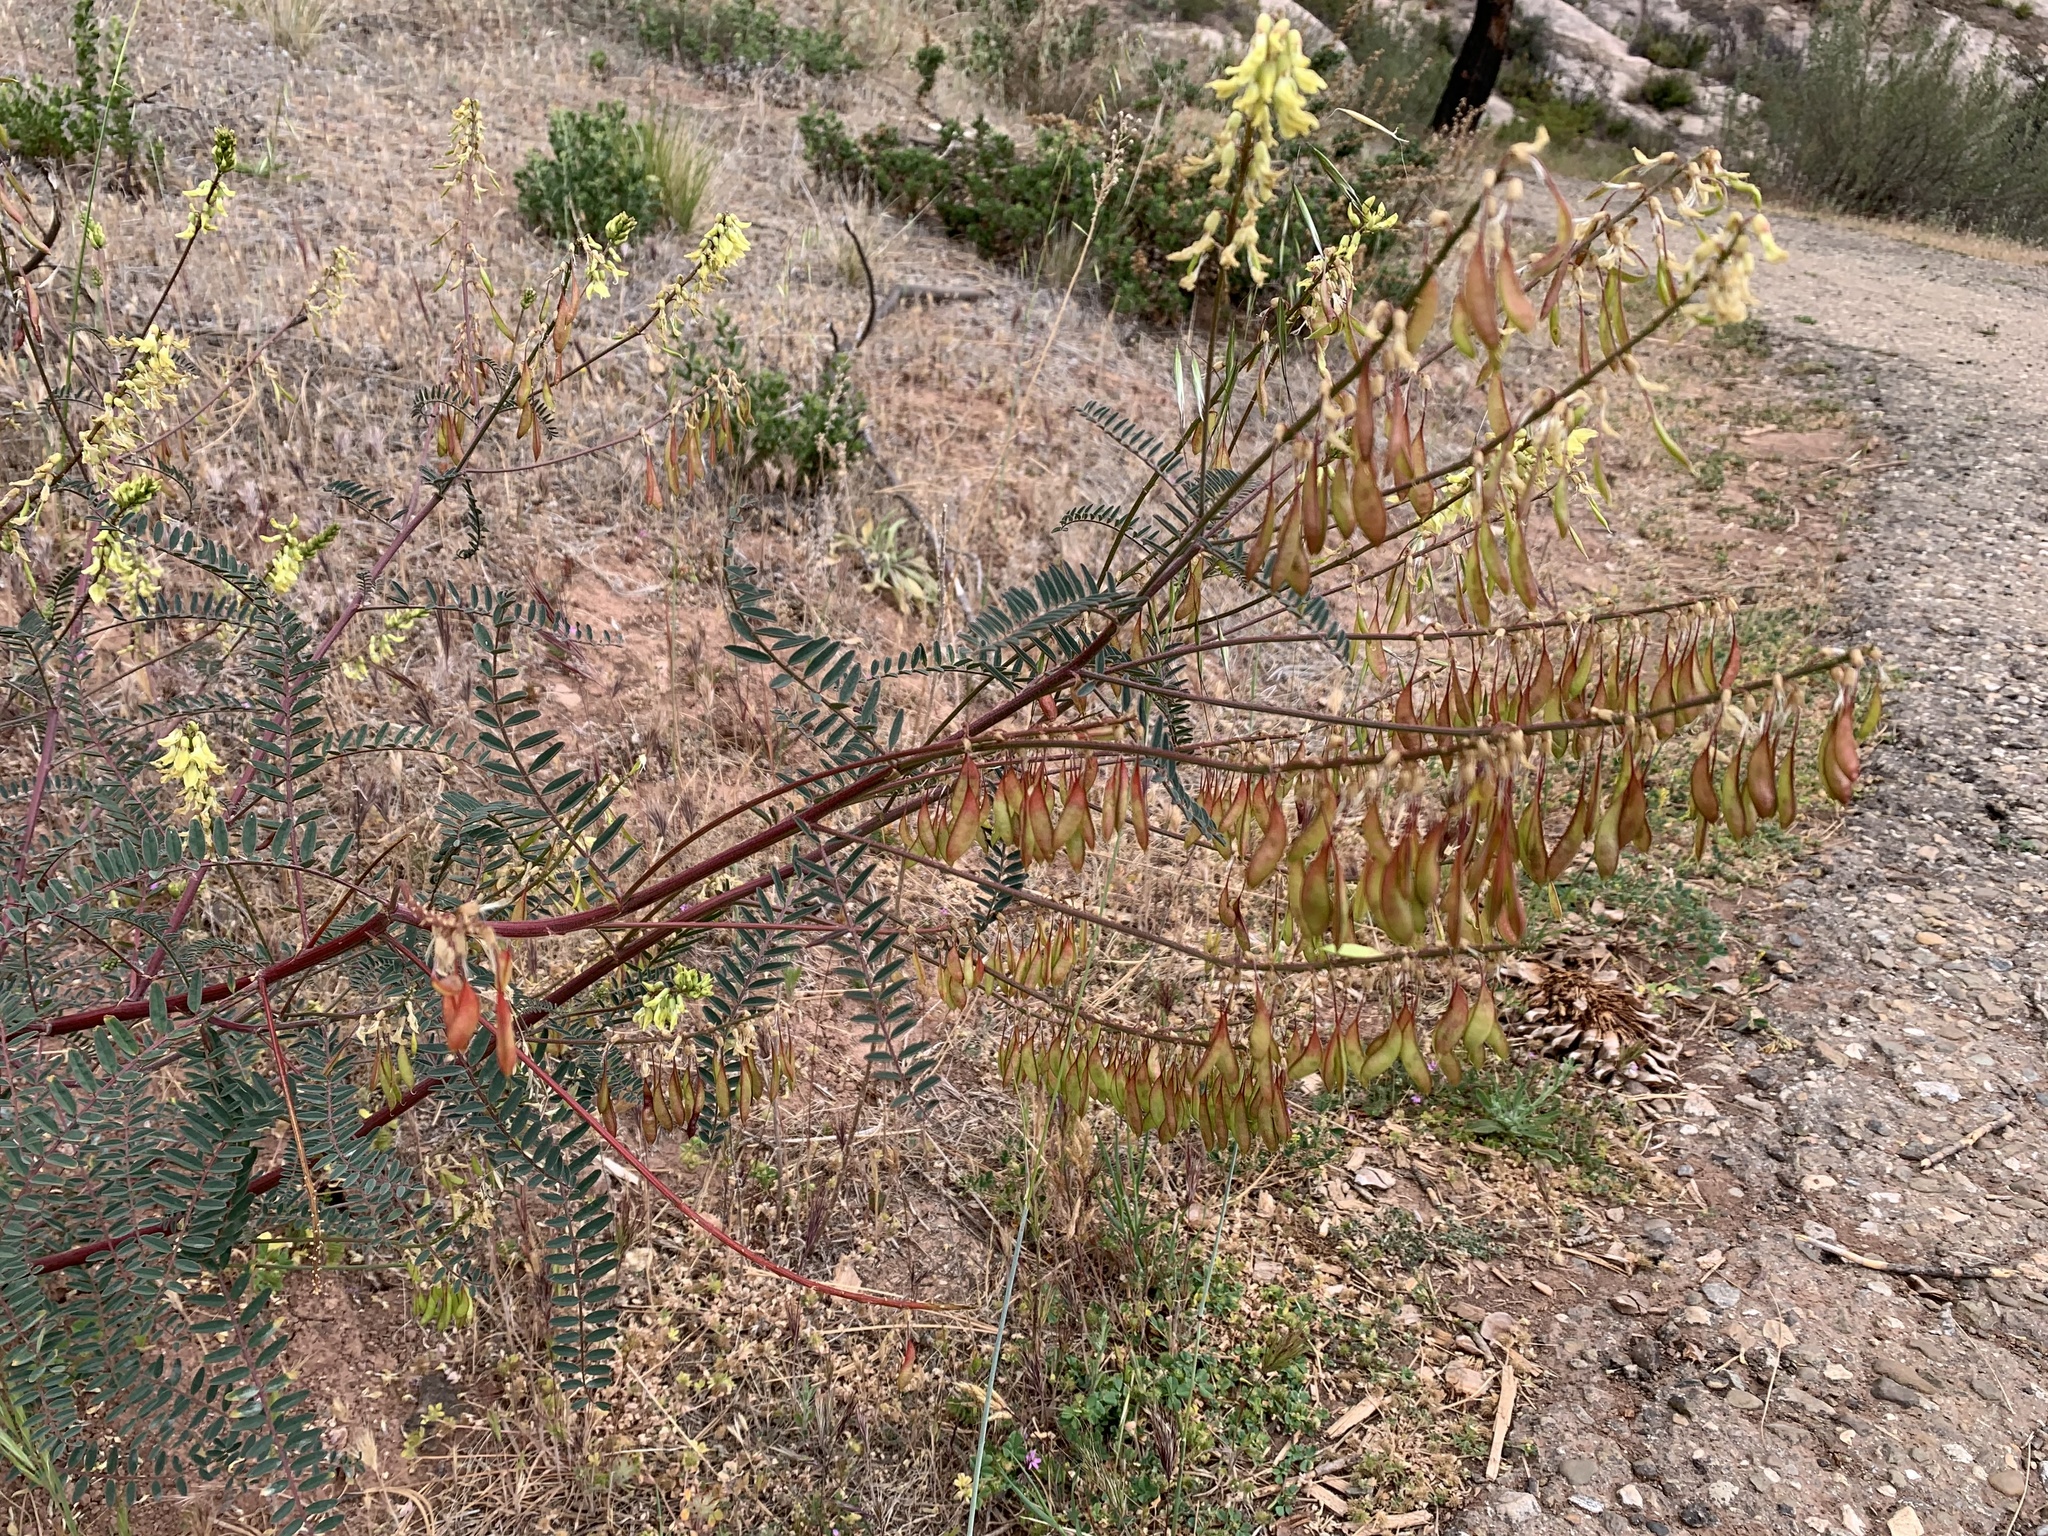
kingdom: Plantae
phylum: Tracheophyta
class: Magnoliopsida
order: Fabales
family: Fabaceae
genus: Astragalus
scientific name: Astragalus trichopodus
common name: Santa barbara milk-vetch
